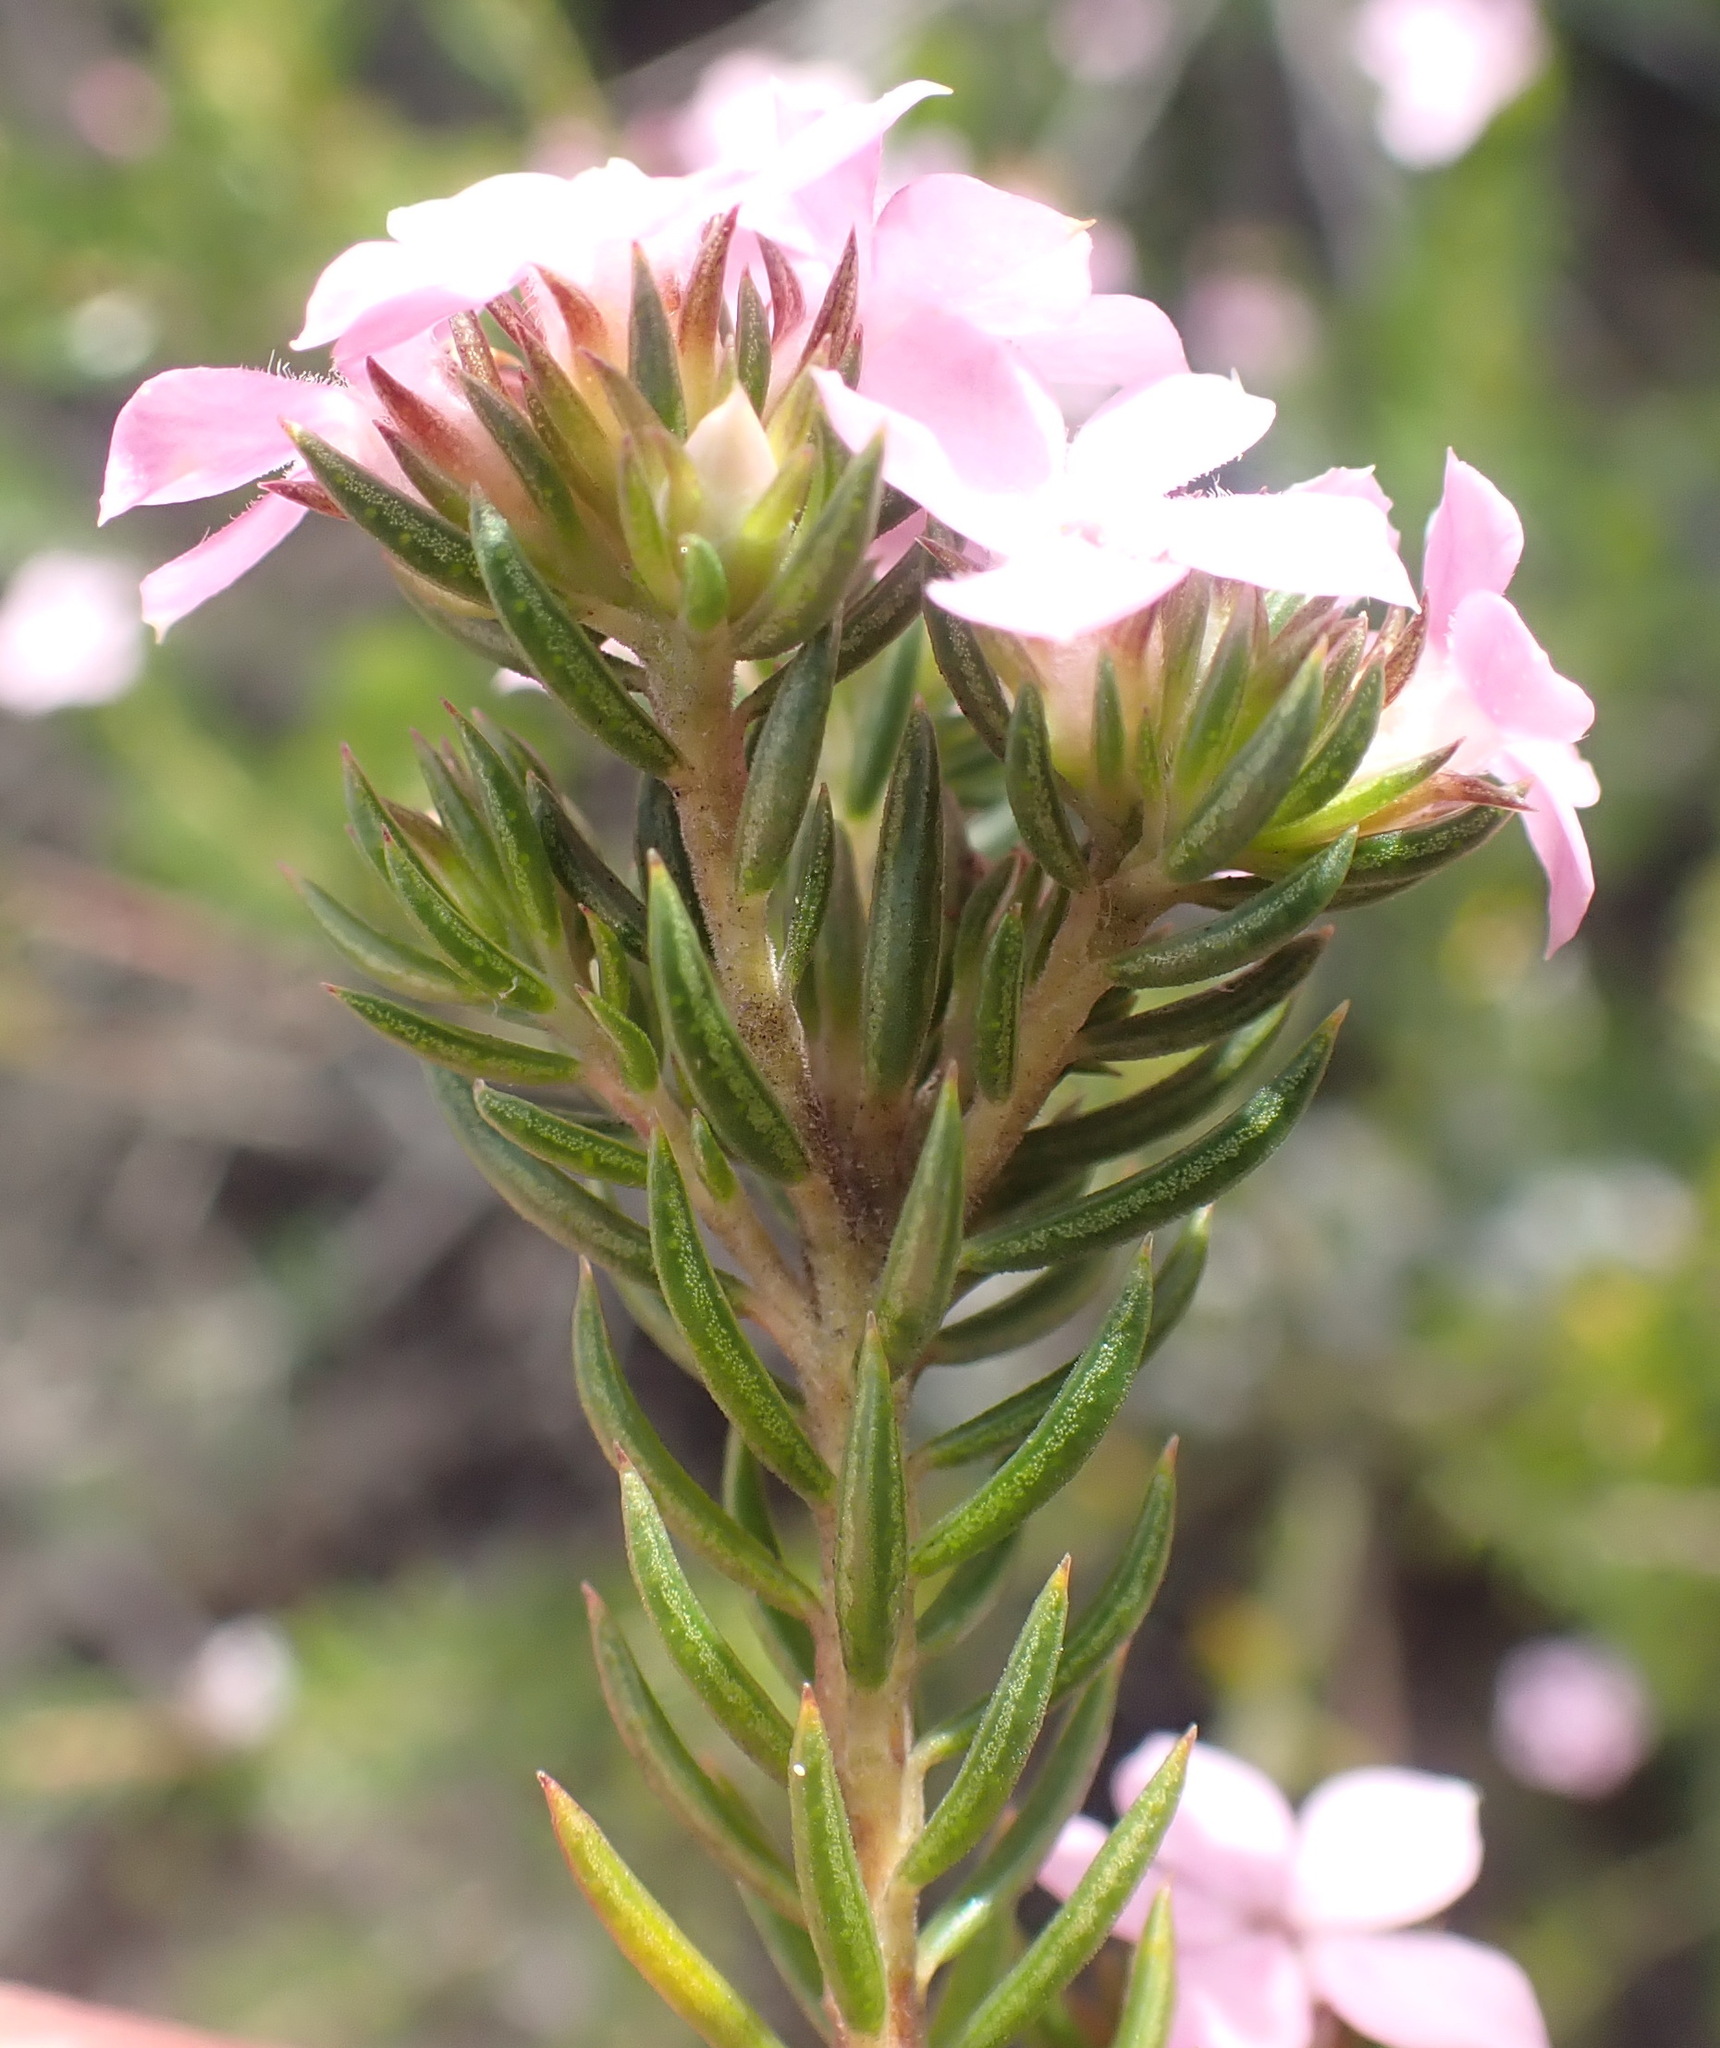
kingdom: Plantae
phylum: Tracheophyta
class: Magnoliopsida
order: Sapindales
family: Rutaceae
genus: Acmadenia
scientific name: Acmadenia alternifolia
